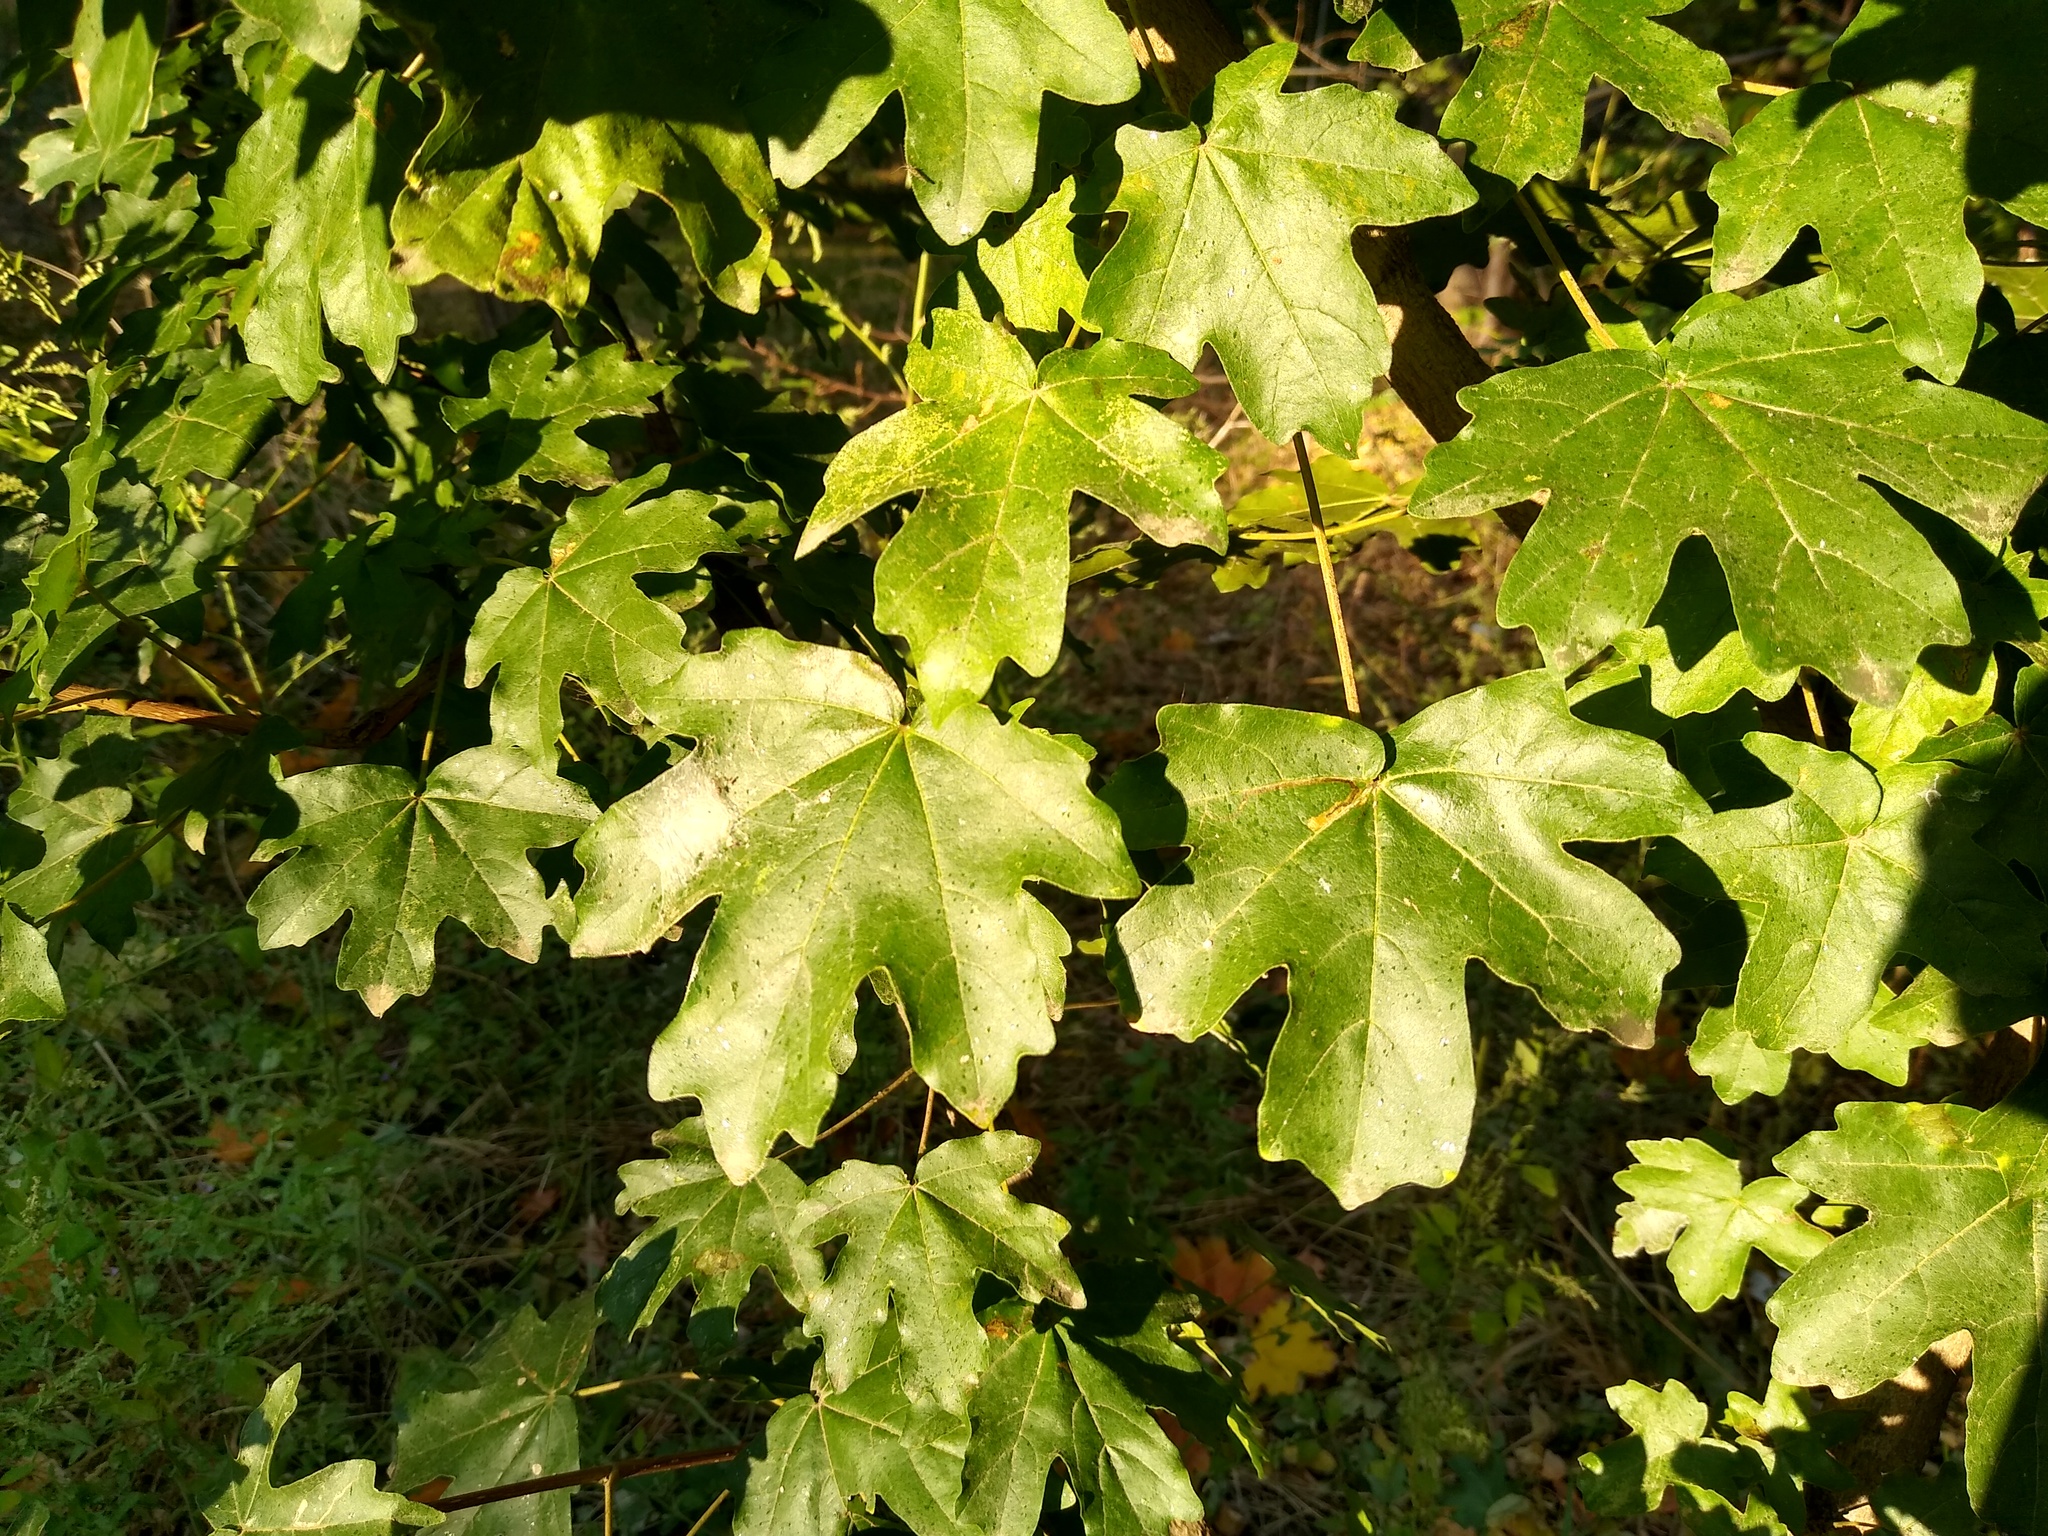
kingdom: Plantae
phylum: Tracheophyta
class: Magnoliopsida
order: Sapindales
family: Sapindaceae
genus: Acer
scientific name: Acer campestre
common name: Field maple
